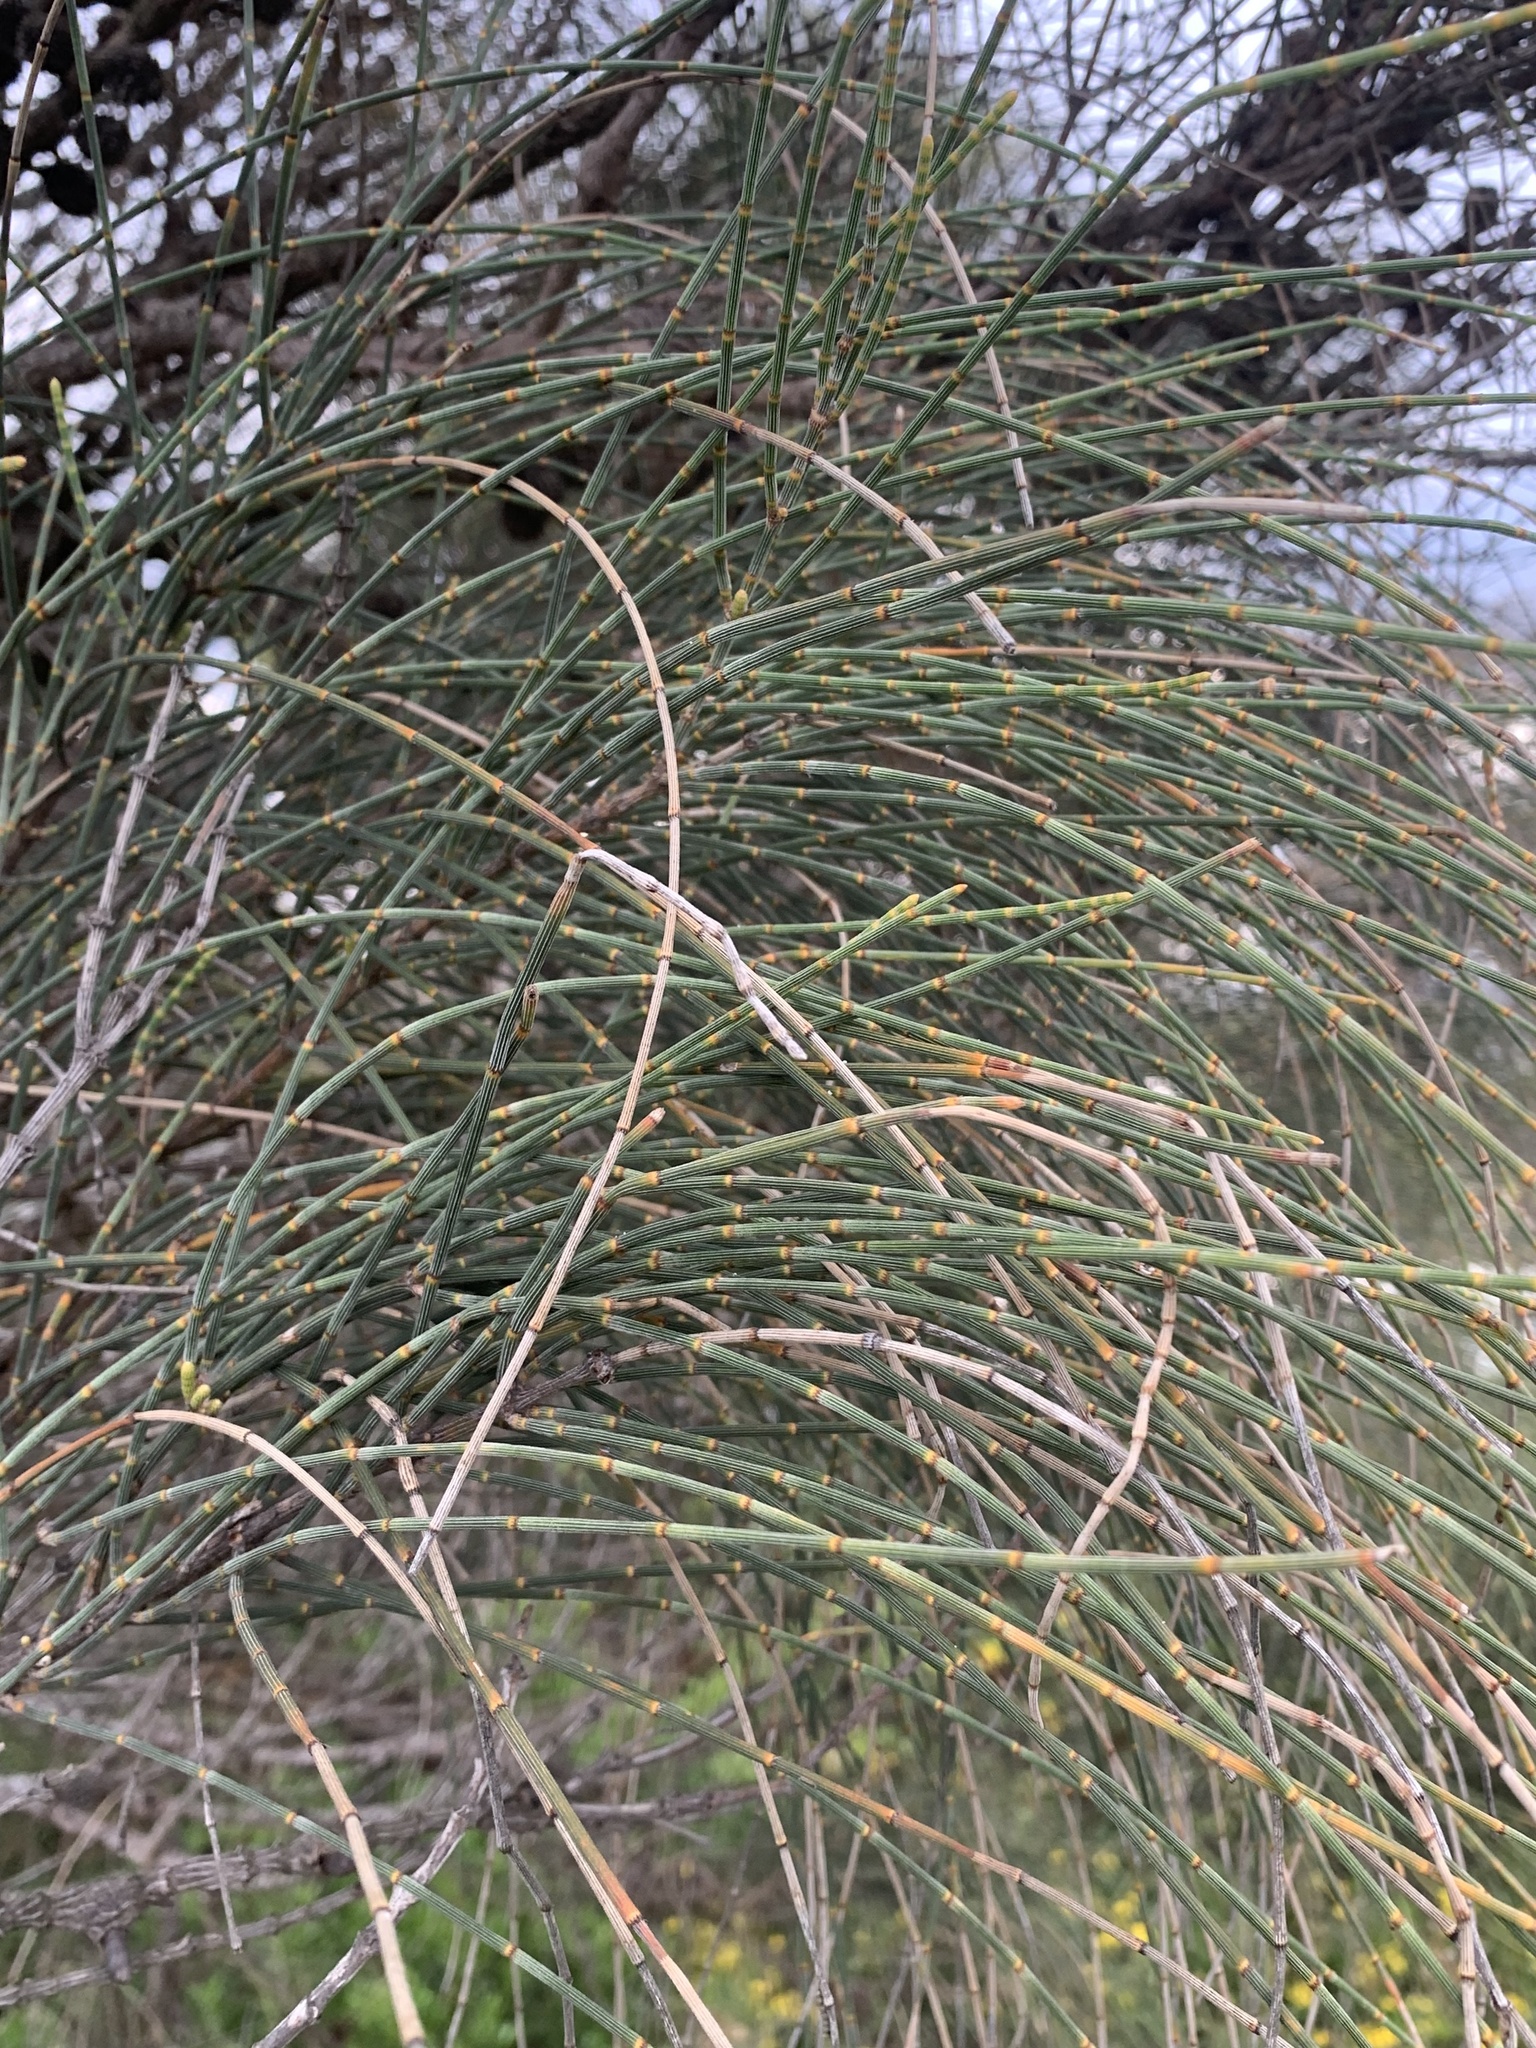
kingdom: Plantae
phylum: Tracheophyta
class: Magnoliopsida
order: Fagales
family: Casuarinaceae
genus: Allocasuarina
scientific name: Allocasuarina verticillata
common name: Drooping she-oak
